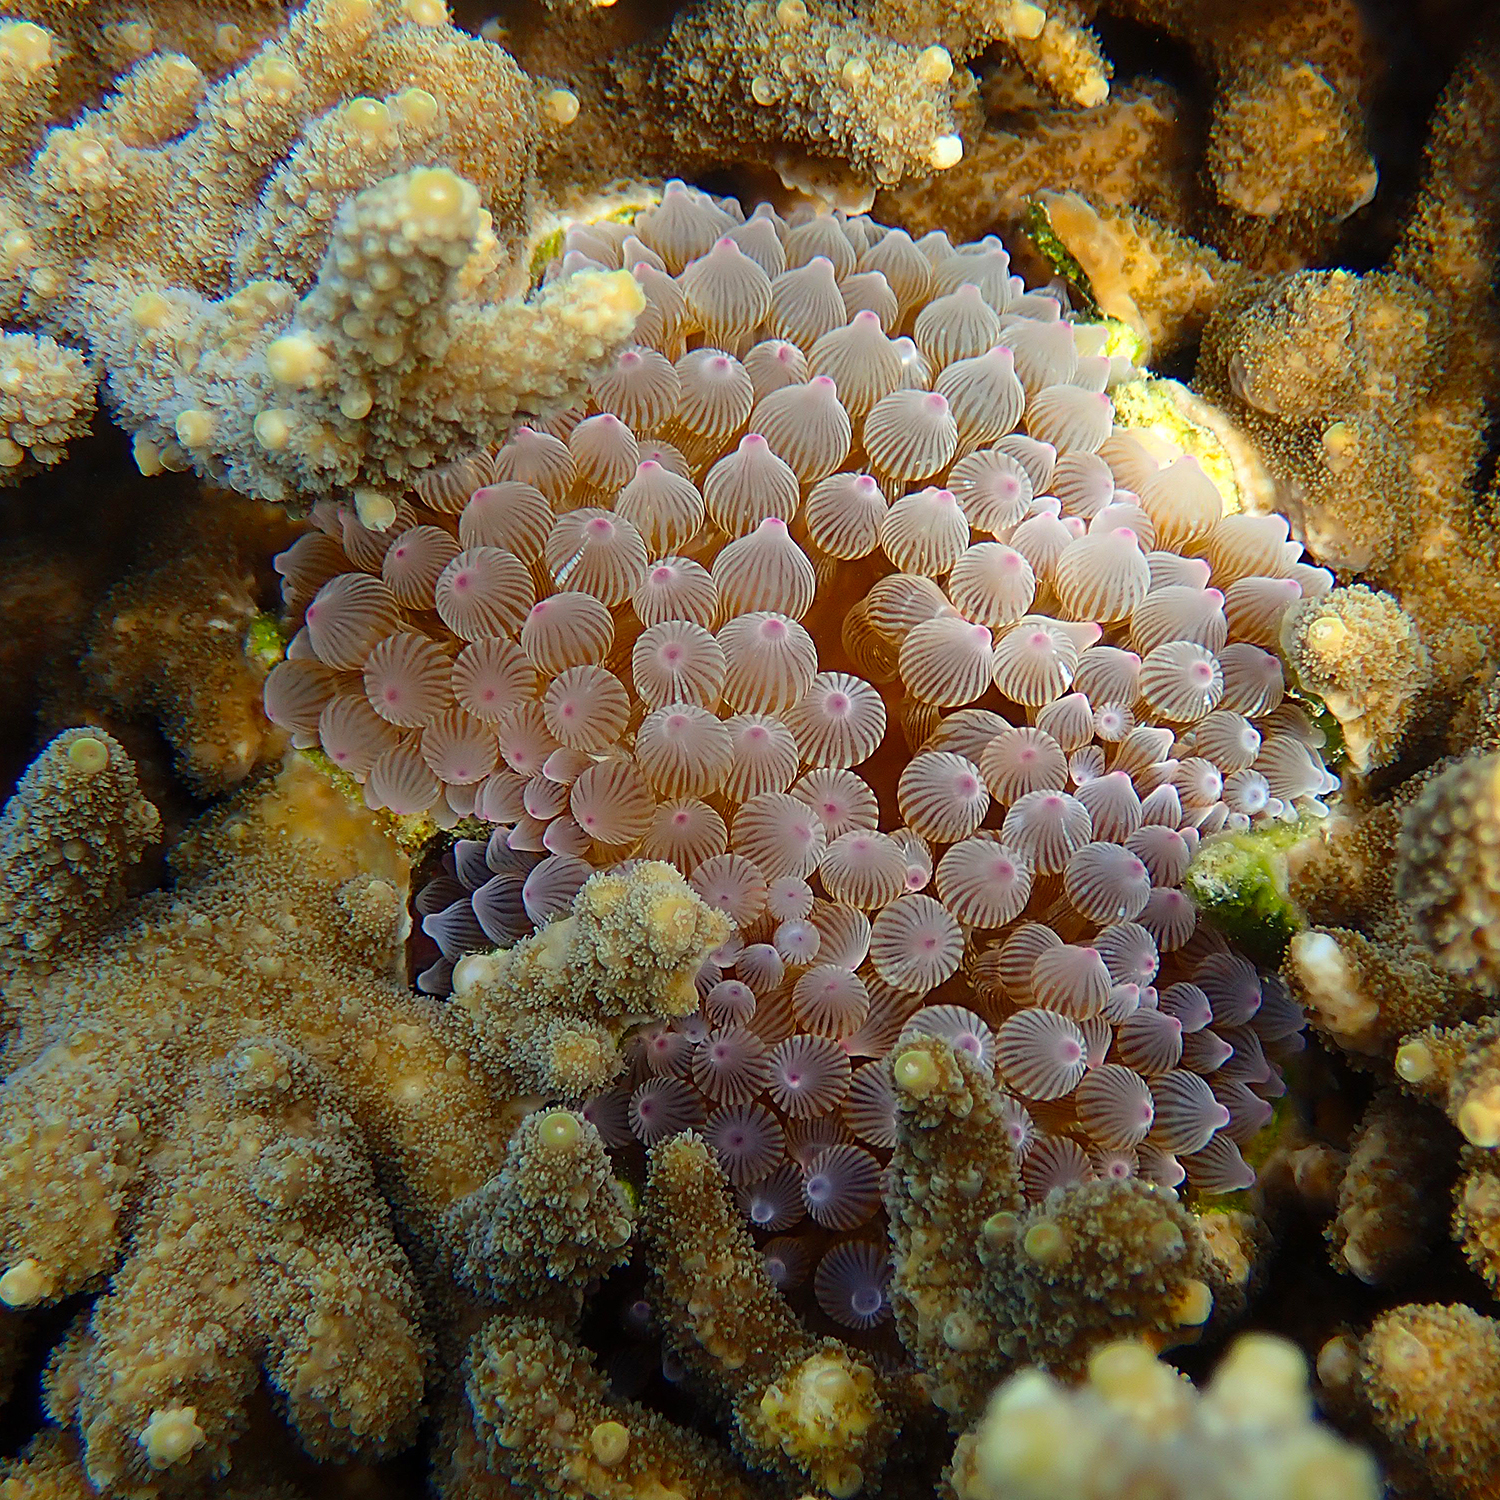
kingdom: Animalia
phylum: Cnidaria
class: Anthozoa
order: Actiniaria
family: Actiniidae
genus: Entacmaea
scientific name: Entacmaea quadricolor
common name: Bulb tentacle sea anemone
